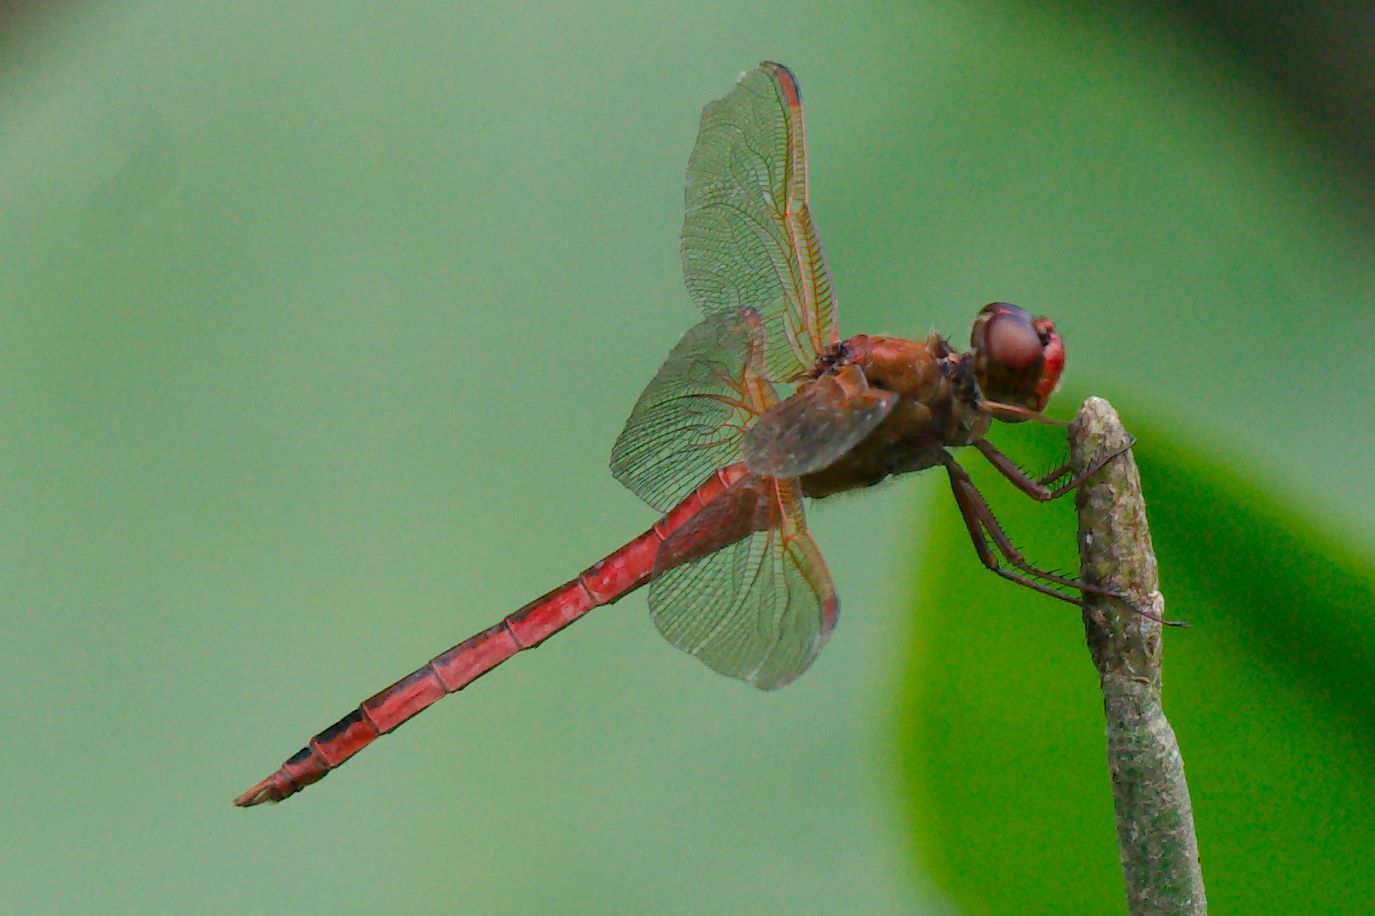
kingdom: Animalia
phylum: Arthropoda
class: Insecta
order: Odonata
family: Libellulidae
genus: Libellula
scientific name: Libellula needhami
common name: Needham's skimmer
